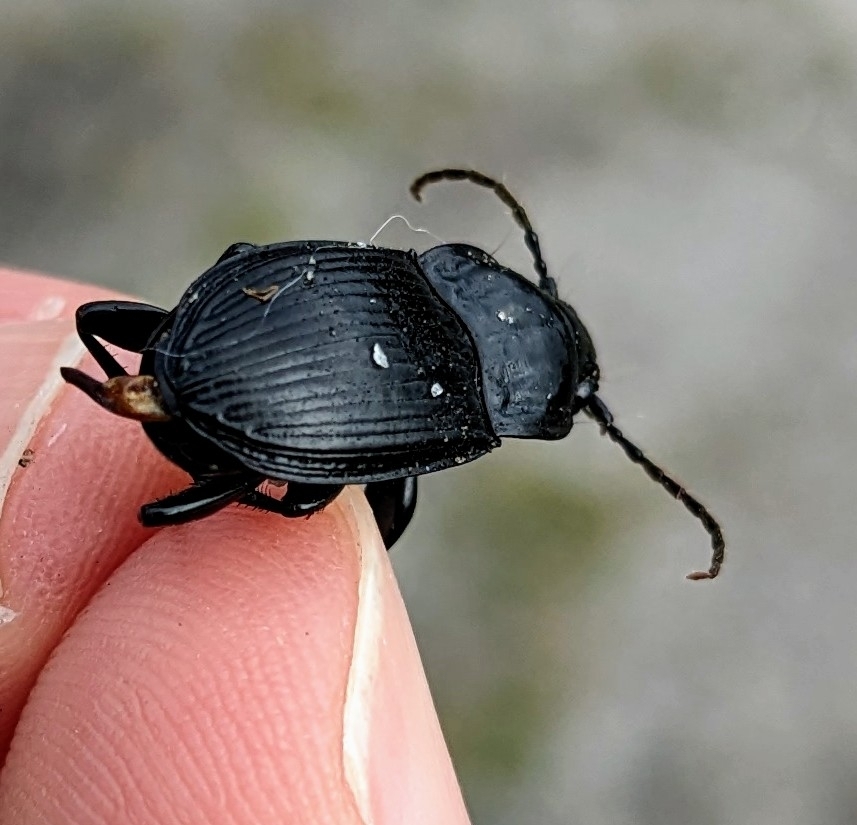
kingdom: Animalia
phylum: Arthropoda
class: Insecta
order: Coleoptera
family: Carabidae
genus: Abax
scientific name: Abax parallelepipedus
